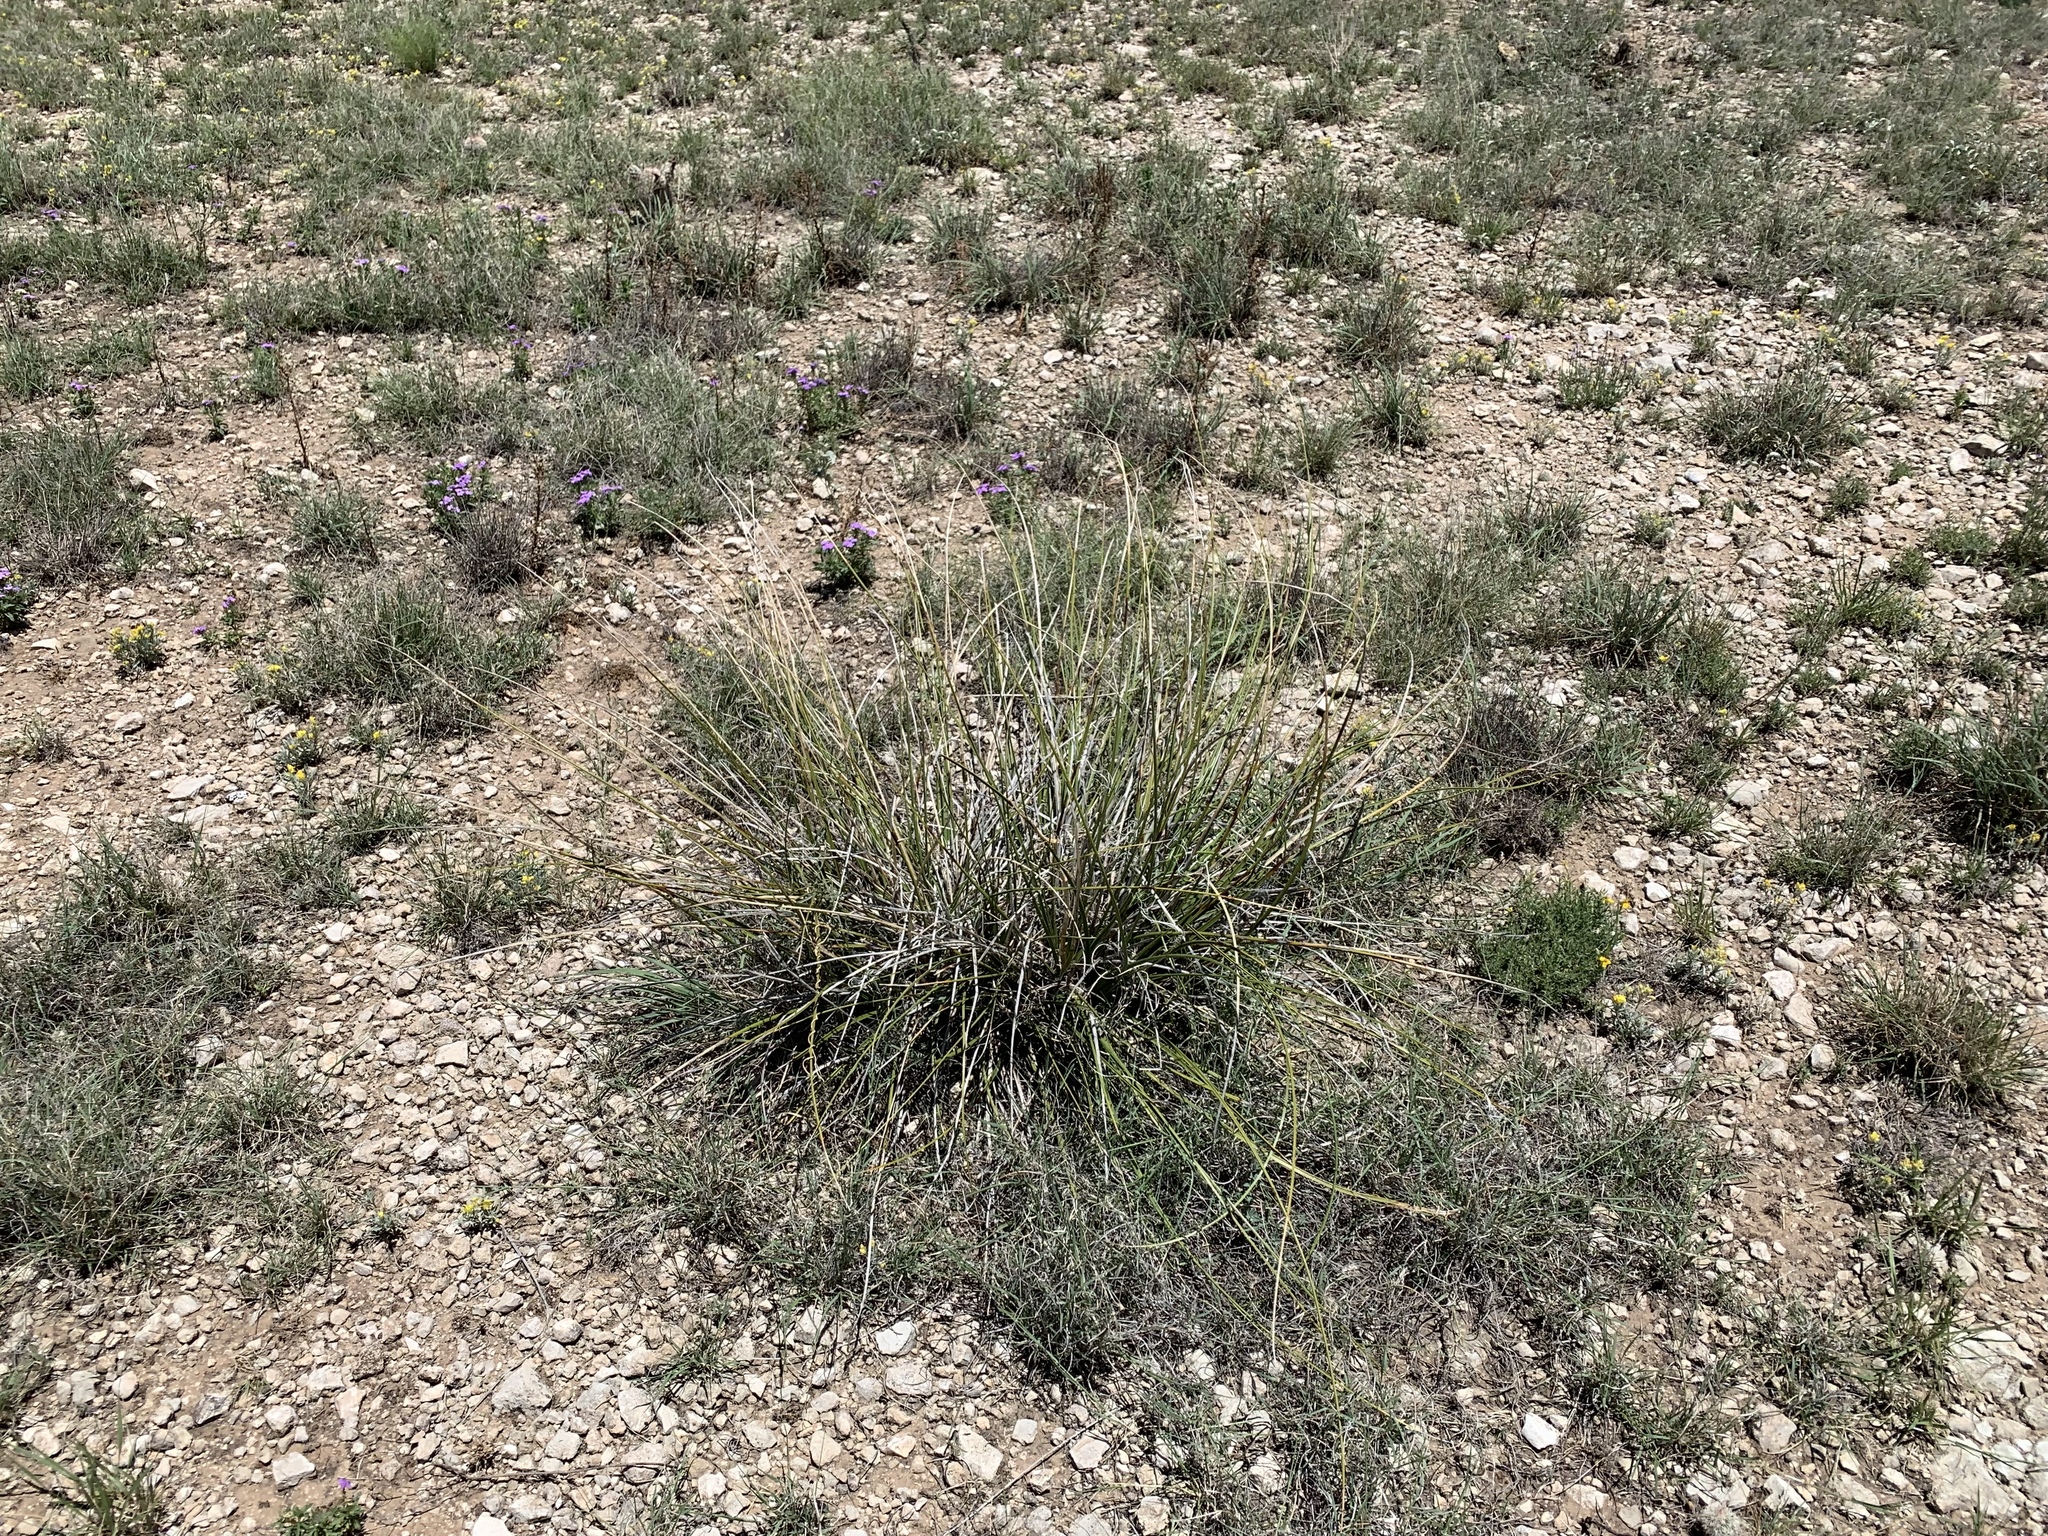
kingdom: Plantae
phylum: Tracheophyta
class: Liliopsida
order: Asparagales
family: Asparagaceae
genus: Nolina
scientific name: Nolina texana
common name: Texas sacahuiste
